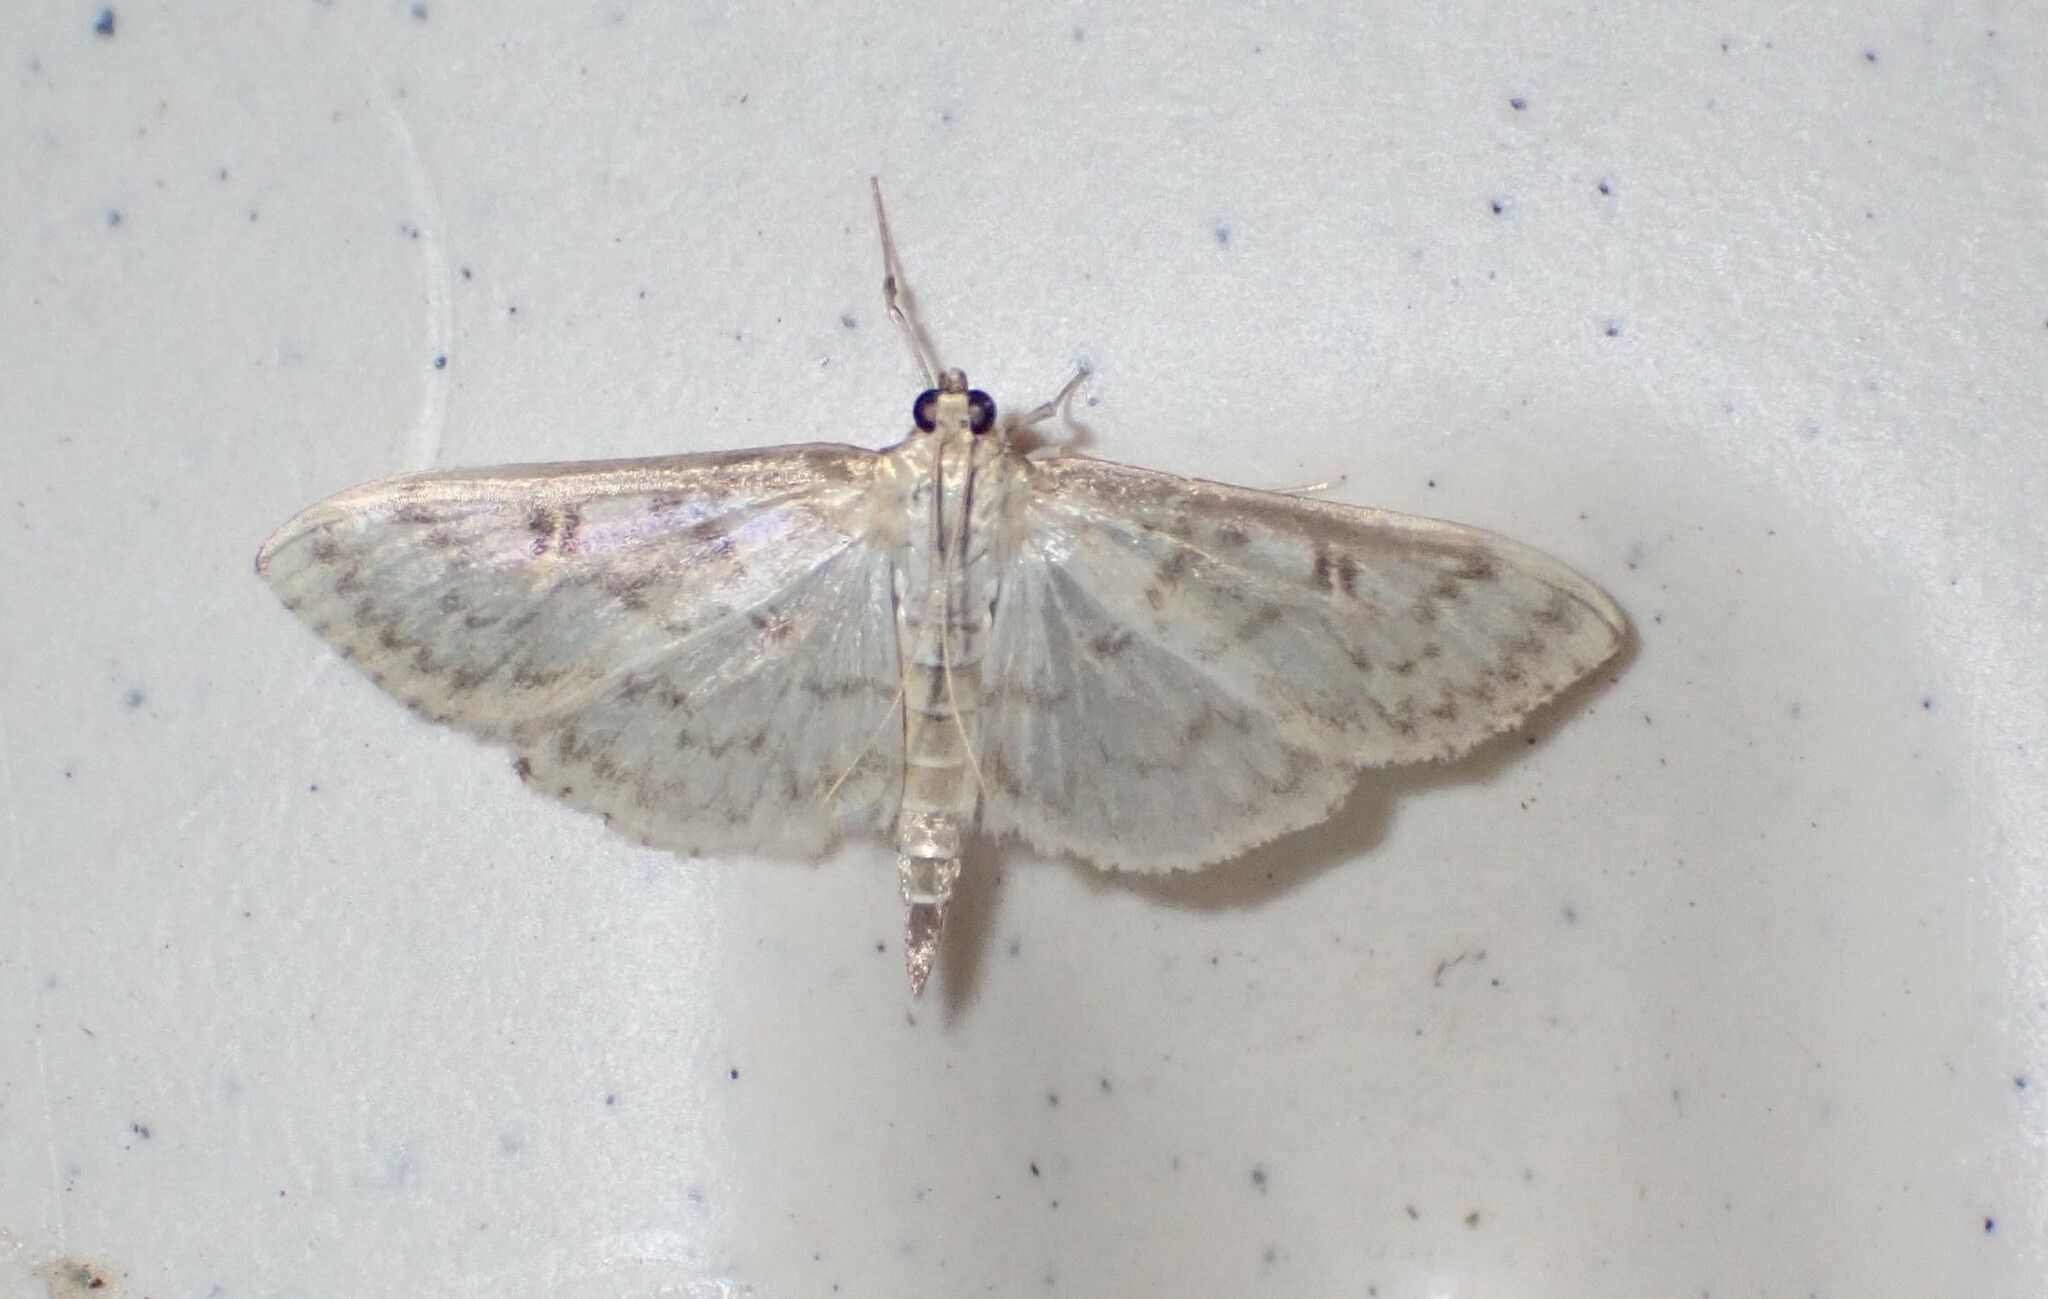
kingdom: Animalia
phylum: Arthropoda
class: Insecta
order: Lepidoptera
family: Crambidae
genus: Herpetogramma
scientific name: Herpetogramma aquilonalis
